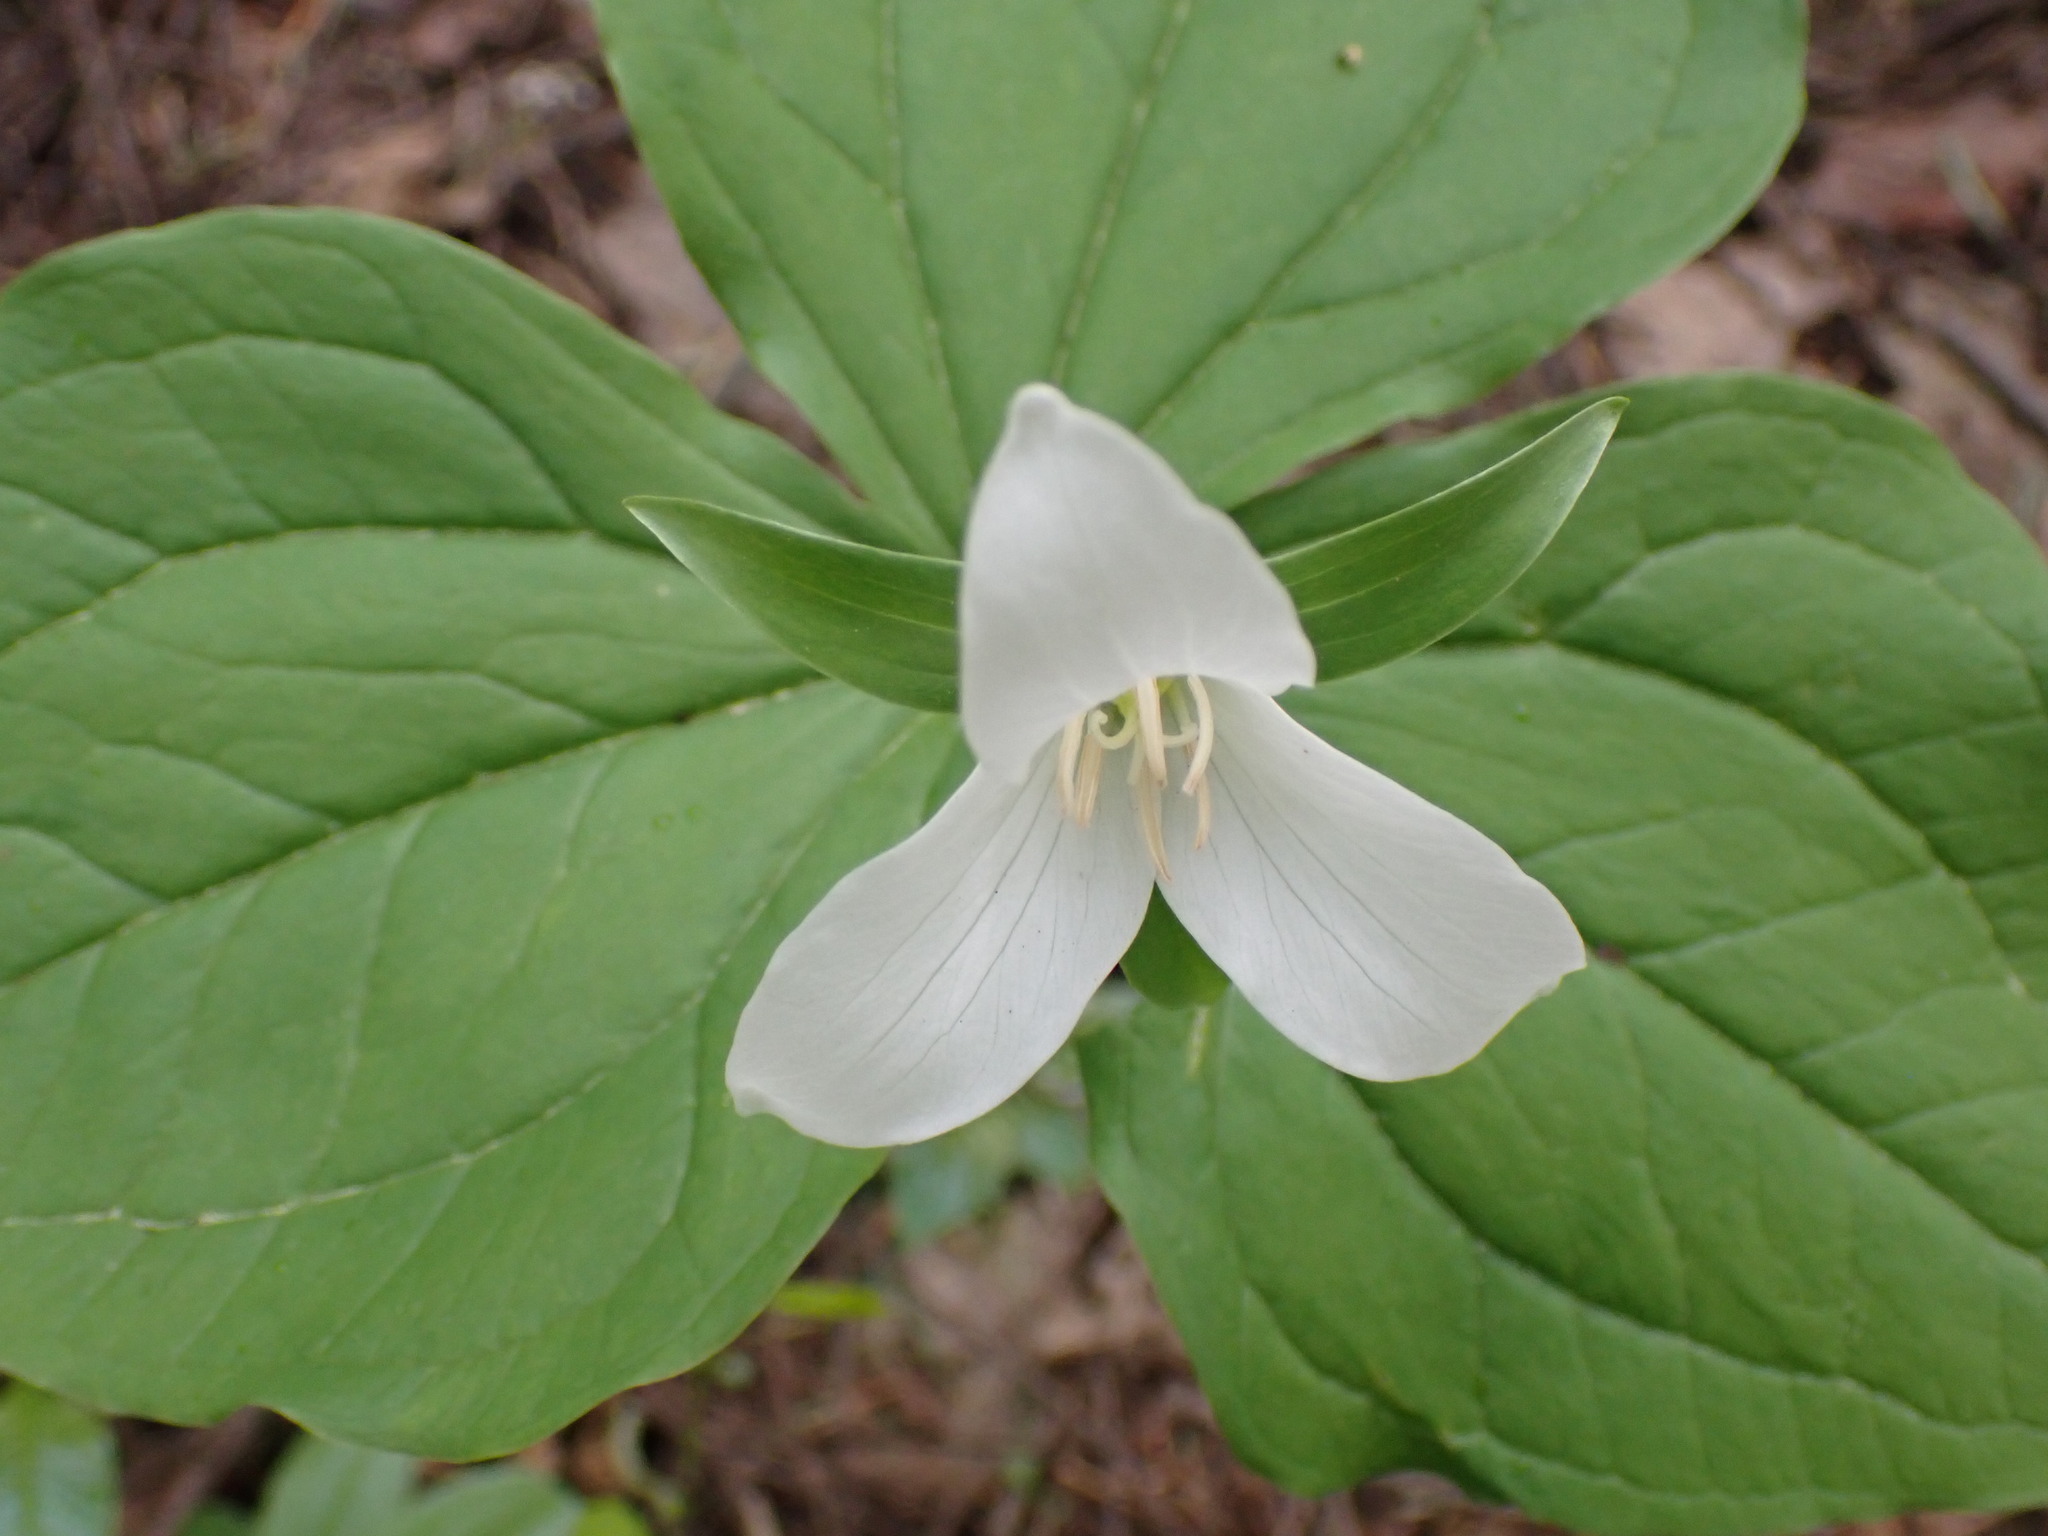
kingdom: Plantae
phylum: Tracheophyta
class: Liliopsida
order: Liliales
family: Melanthiaceae
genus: Trillium
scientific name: Trillium ovatum
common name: Pacific trillium
